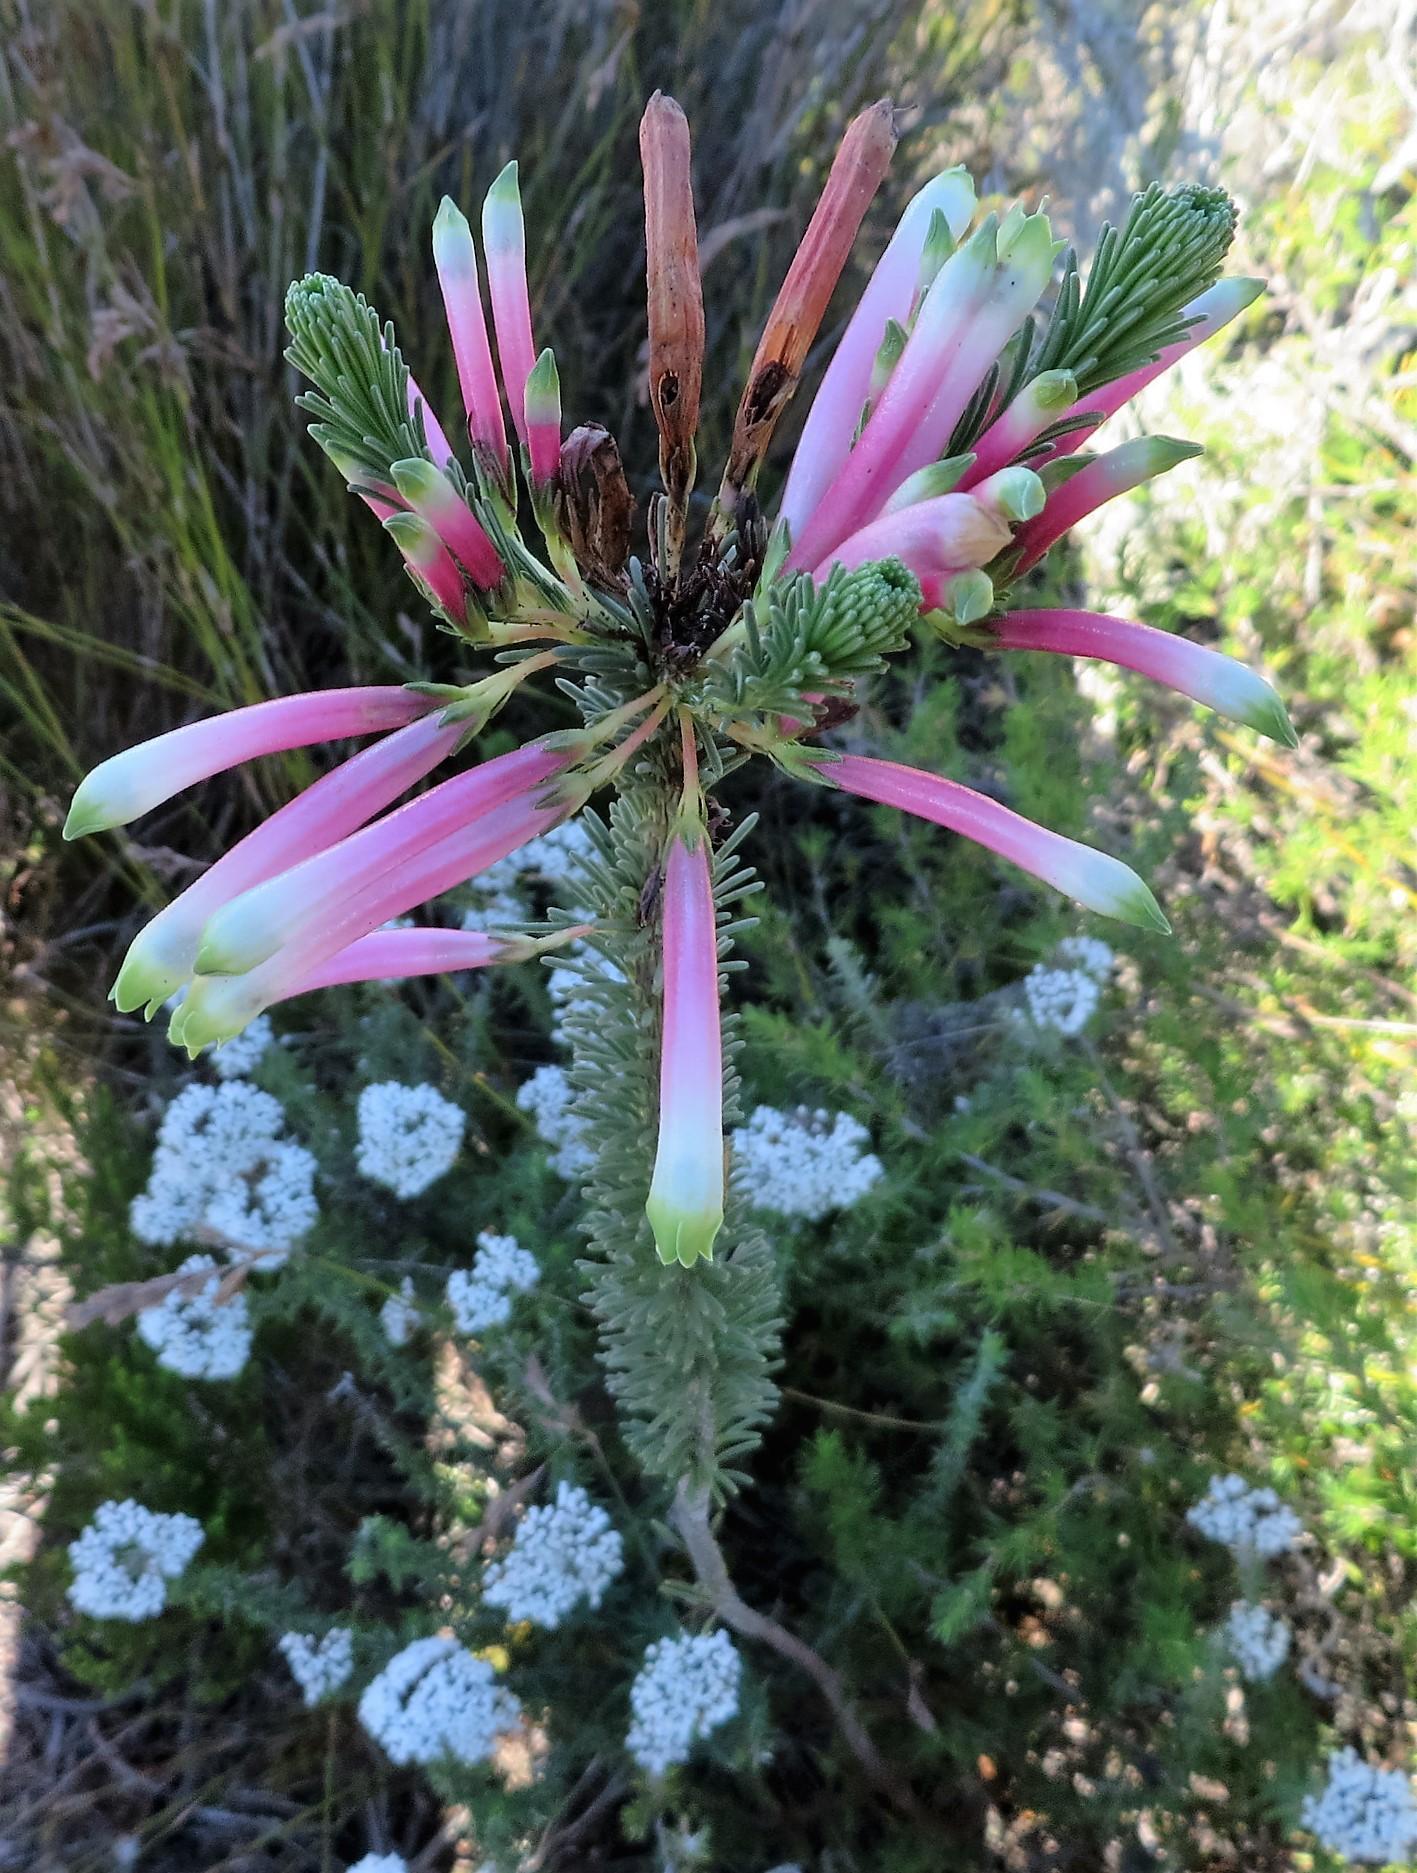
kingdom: Plantae
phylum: Tracheophyta
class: Magnoliopsida
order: Ericales
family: Ericaceae
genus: Erica
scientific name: Erica fascicularis
